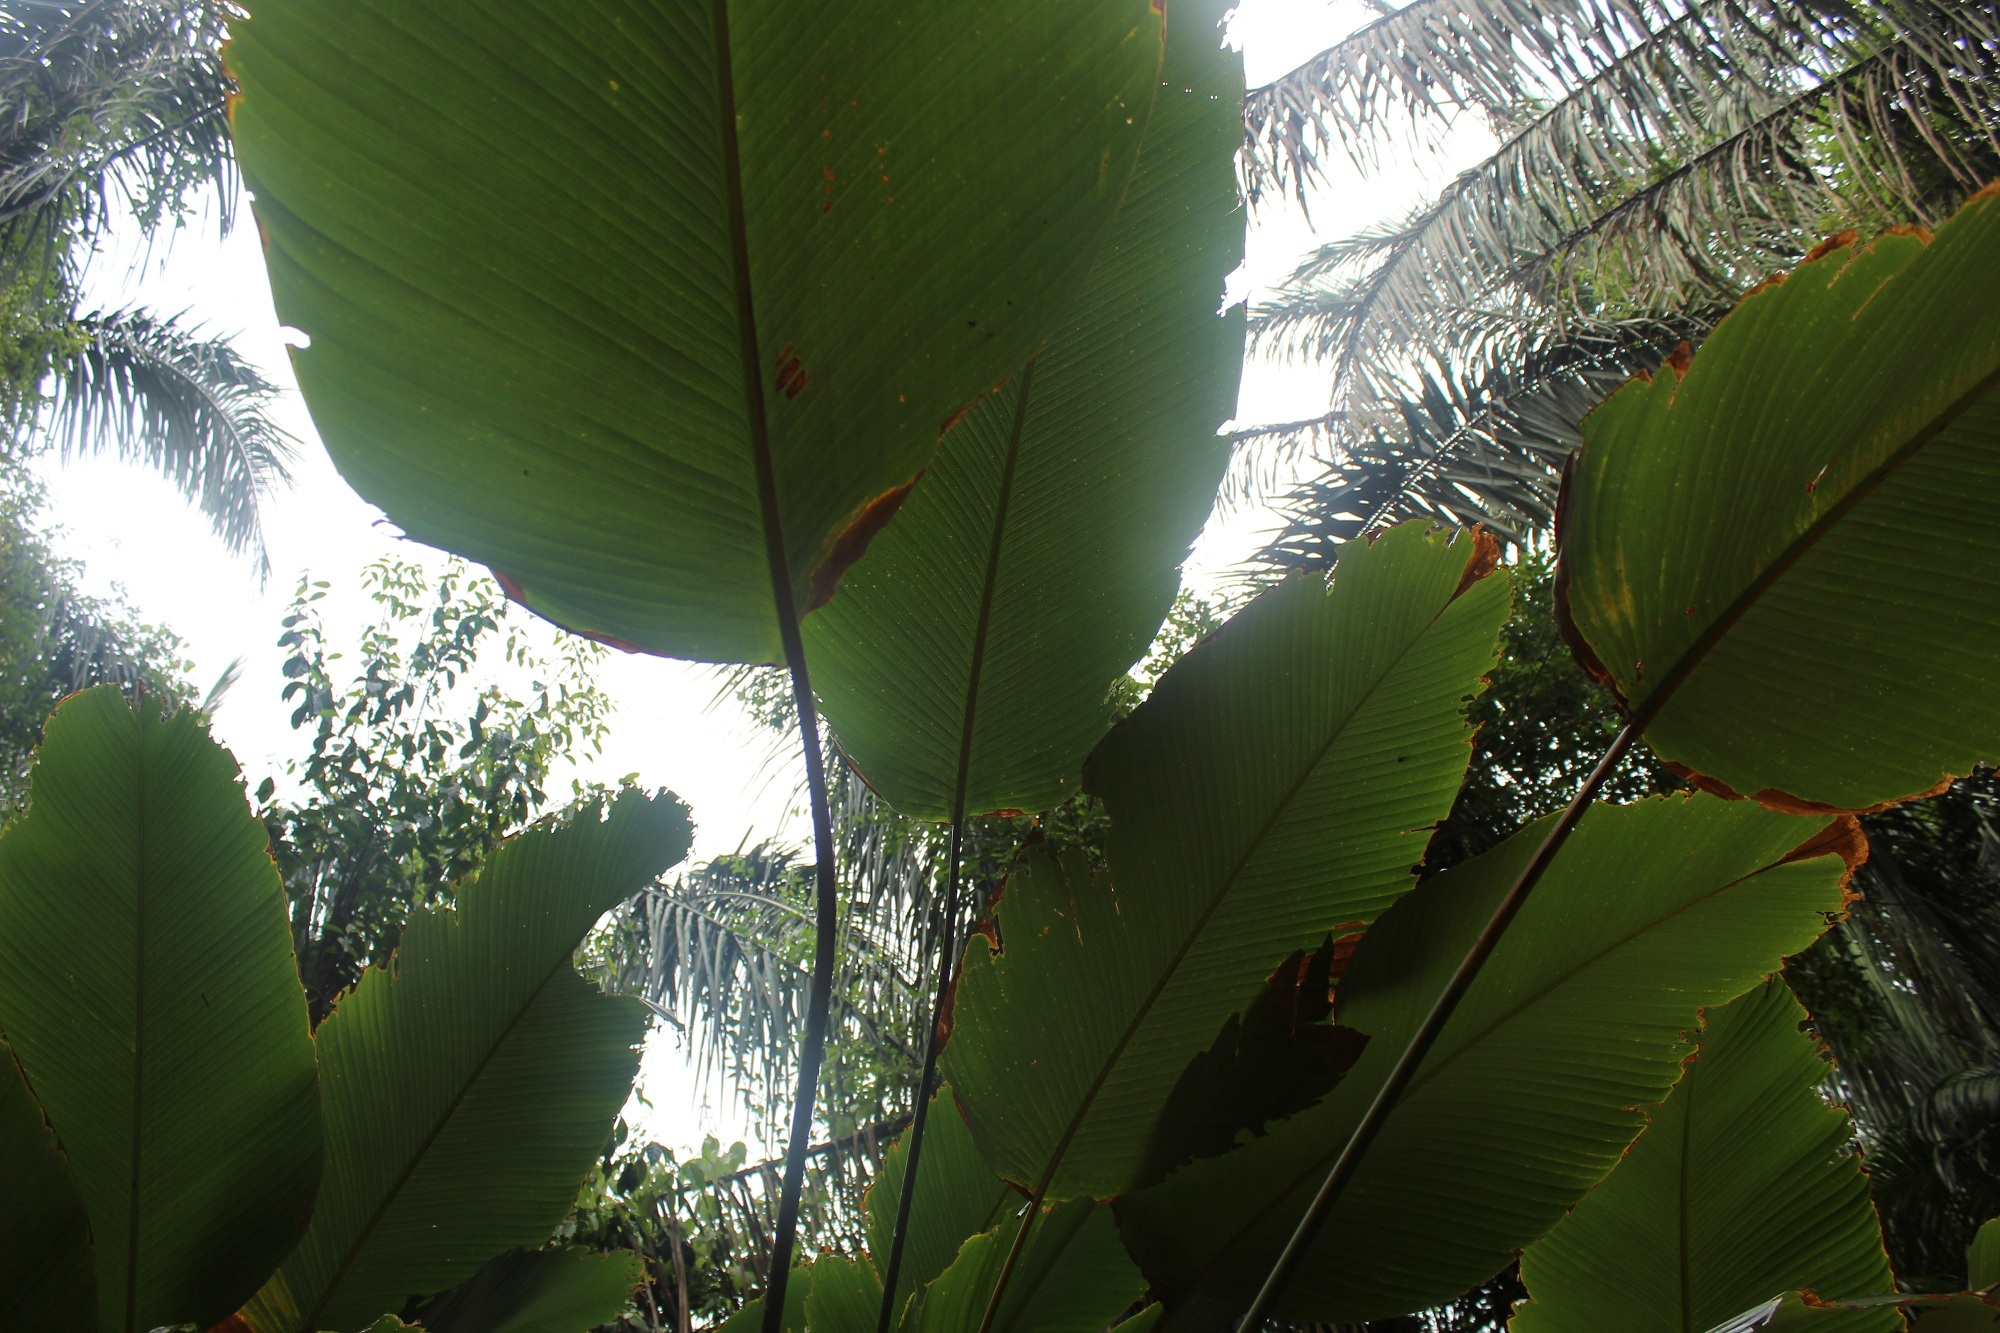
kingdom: Plantae
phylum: Tracheophyta
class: Liliopsida
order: Zingiberales
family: Marantaceae
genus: Calathea
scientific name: Calathea lutea
